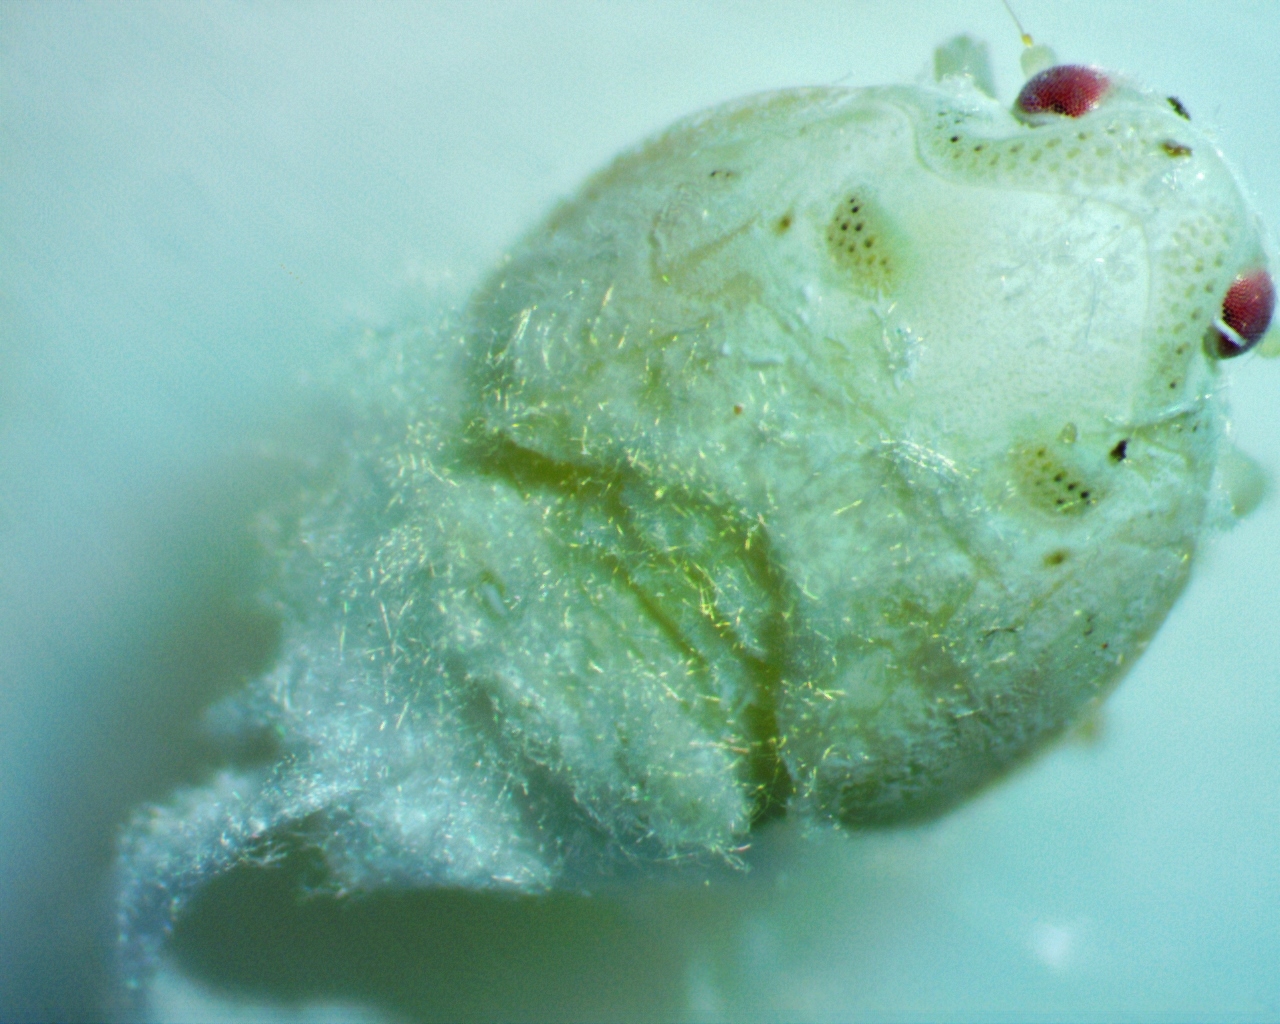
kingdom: Animalia
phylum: Arthropoda
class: Insecta
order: Hemiptera
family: Flatidae
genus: Metcalfa
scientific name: Metcalfa pruinosa
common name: Citrus flatid planthopper
